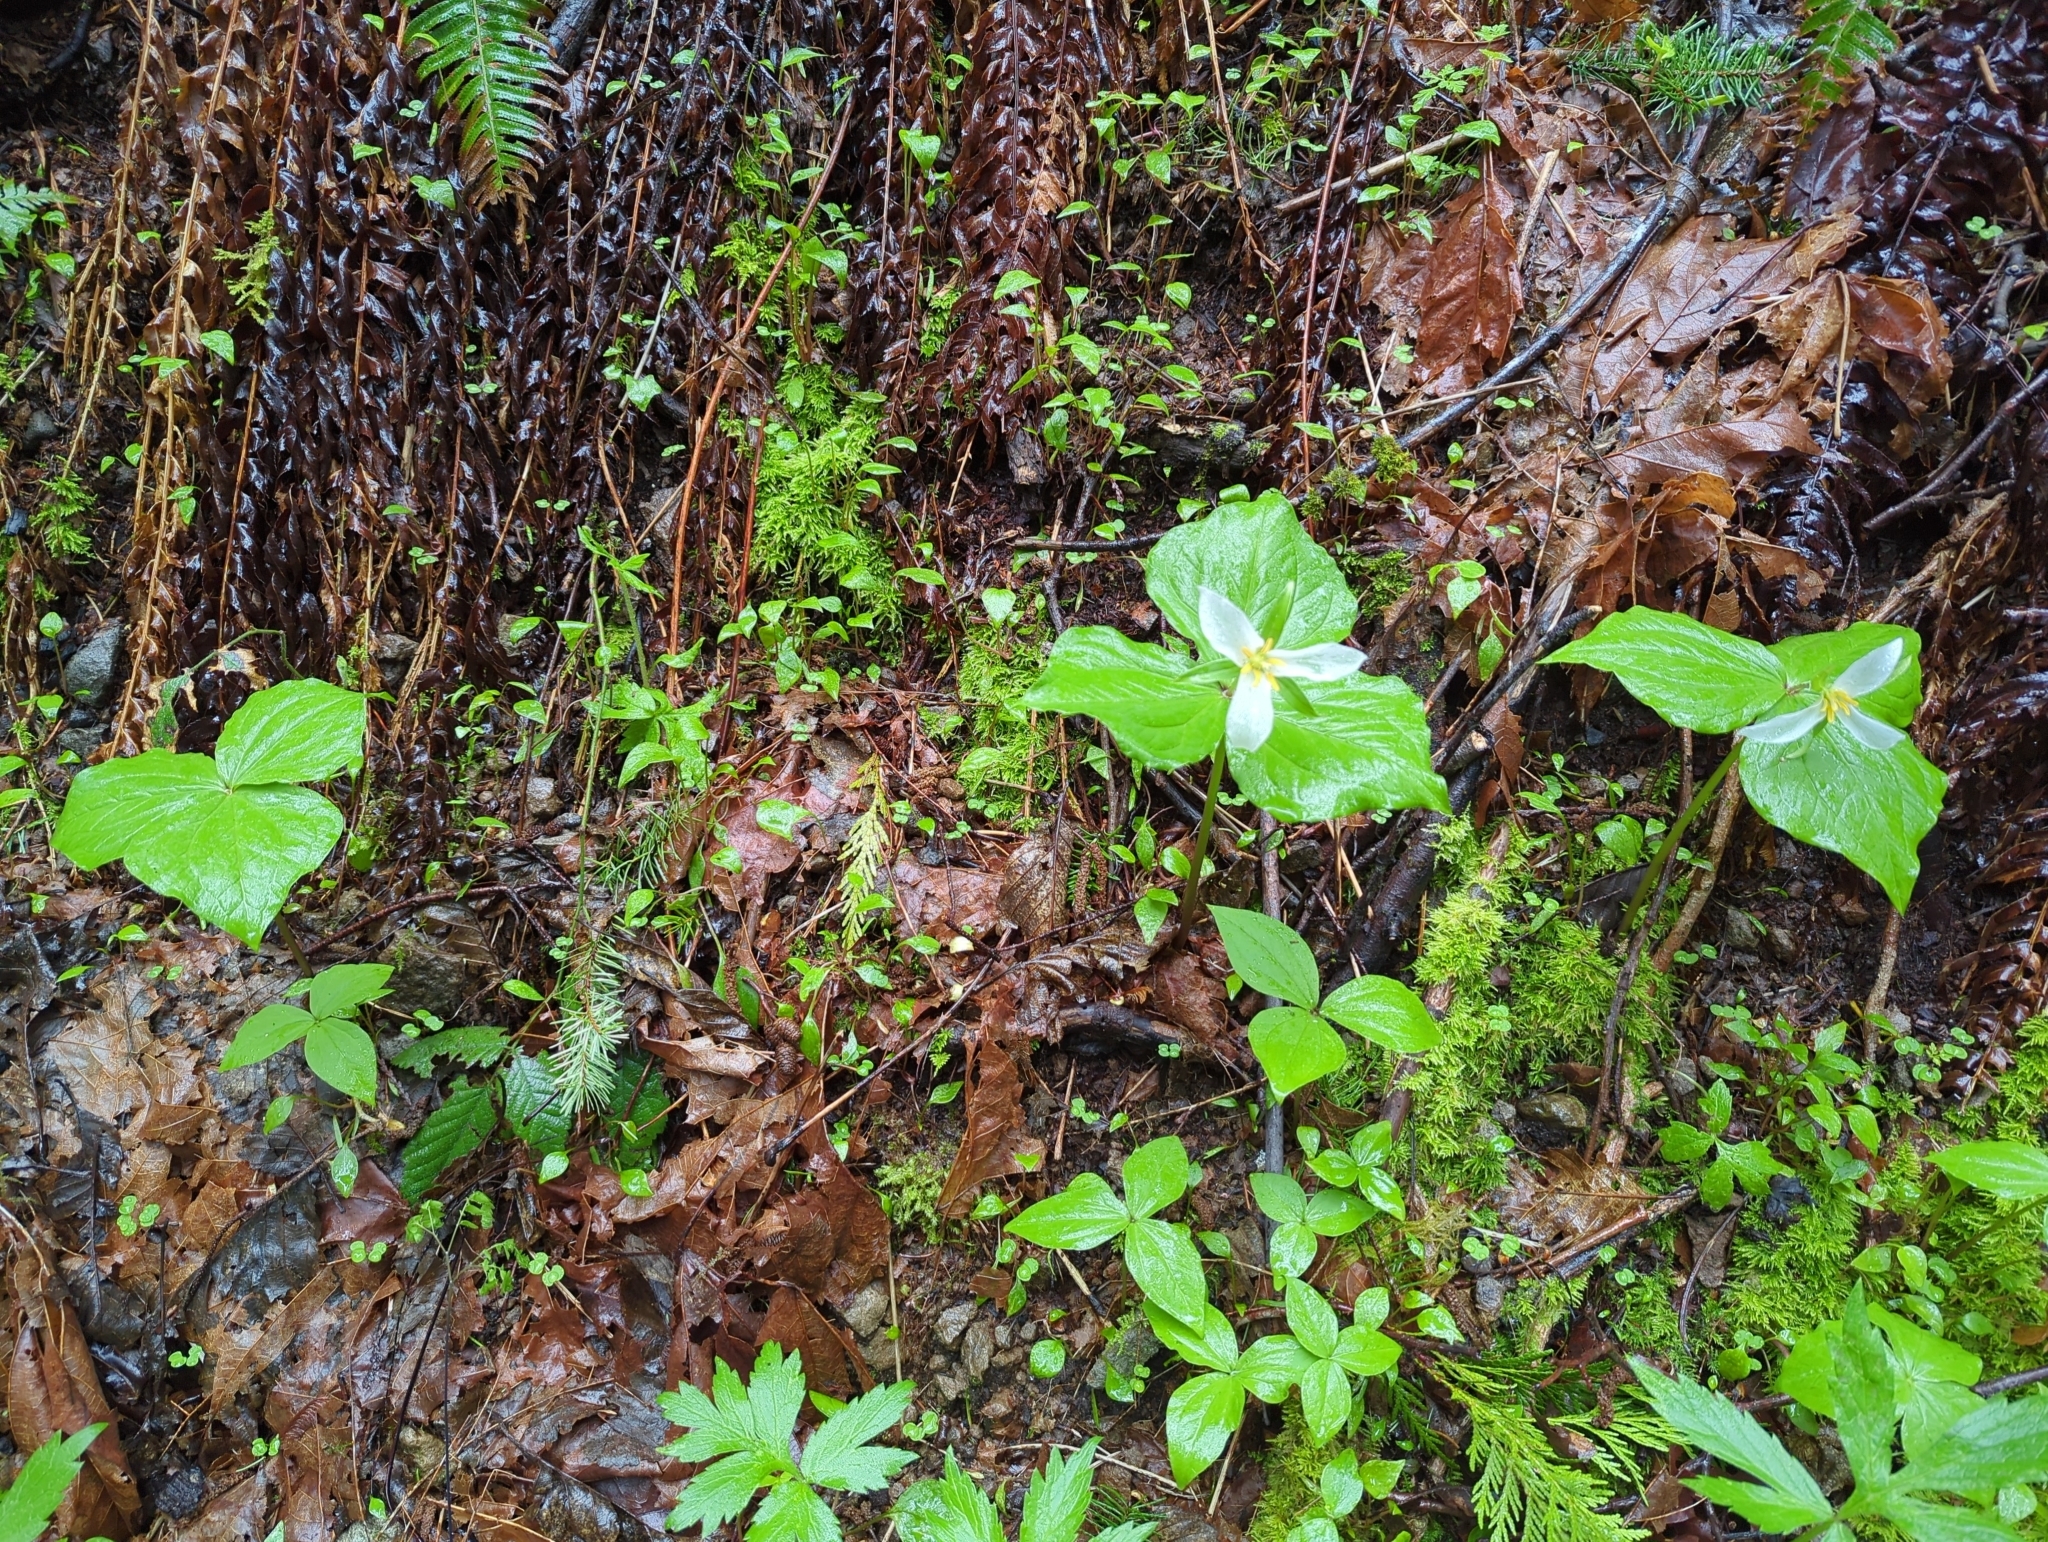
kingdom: Plantae
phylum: Tracheophyta
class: Liliopsida
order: Liliales
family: Melanthiaceae
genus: Trillium
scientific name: Trillium ovatum
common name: Pacific trillium
